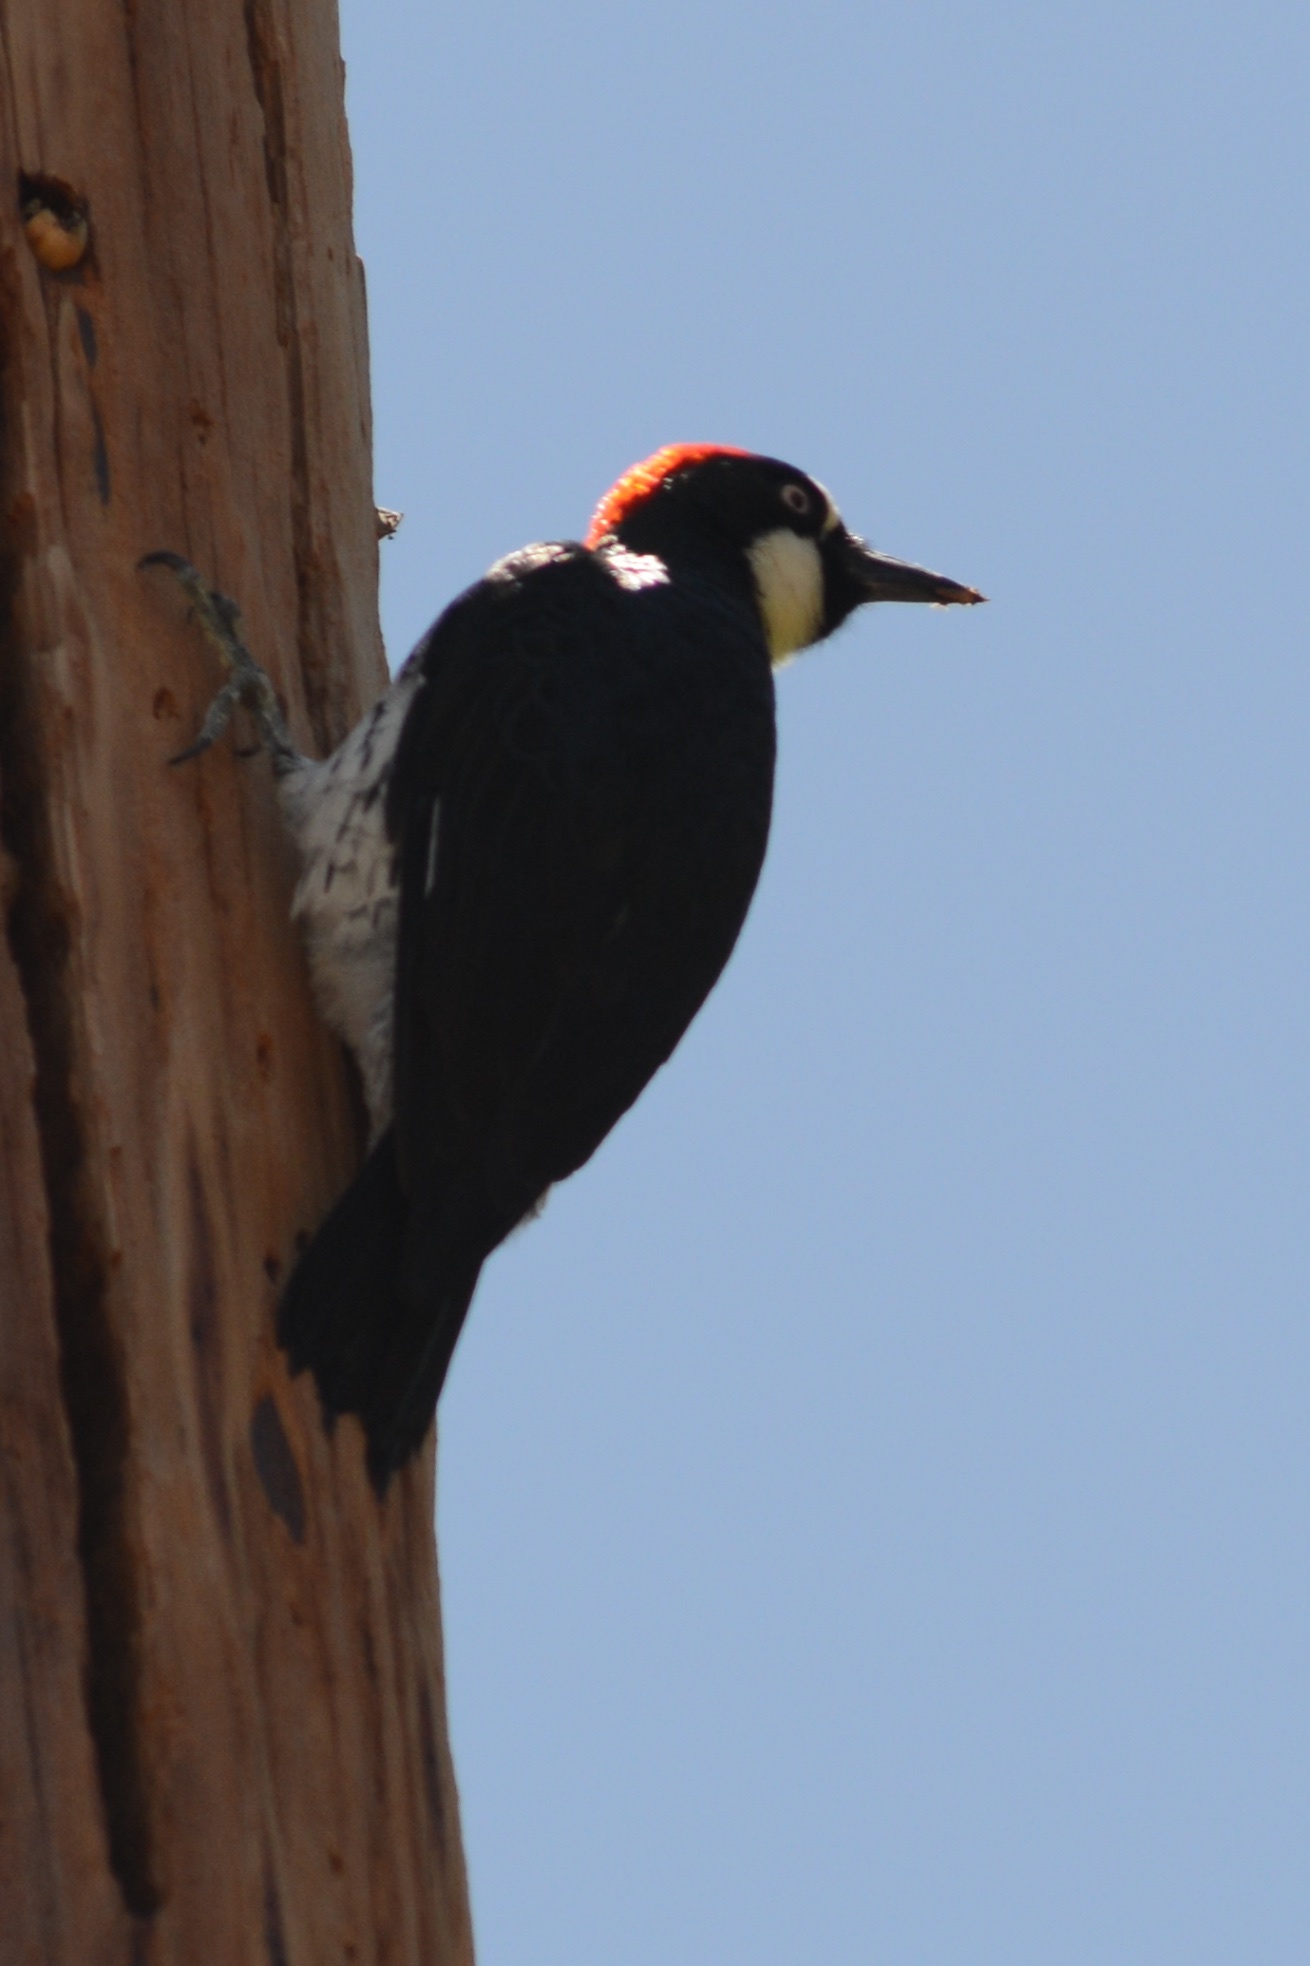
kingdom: Animalia
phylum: Chordata
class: Aves
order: Piciformes
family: Picidae
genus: Melanerpes
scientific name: Melanerpes formicivorus
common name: Acorn woodpecker
